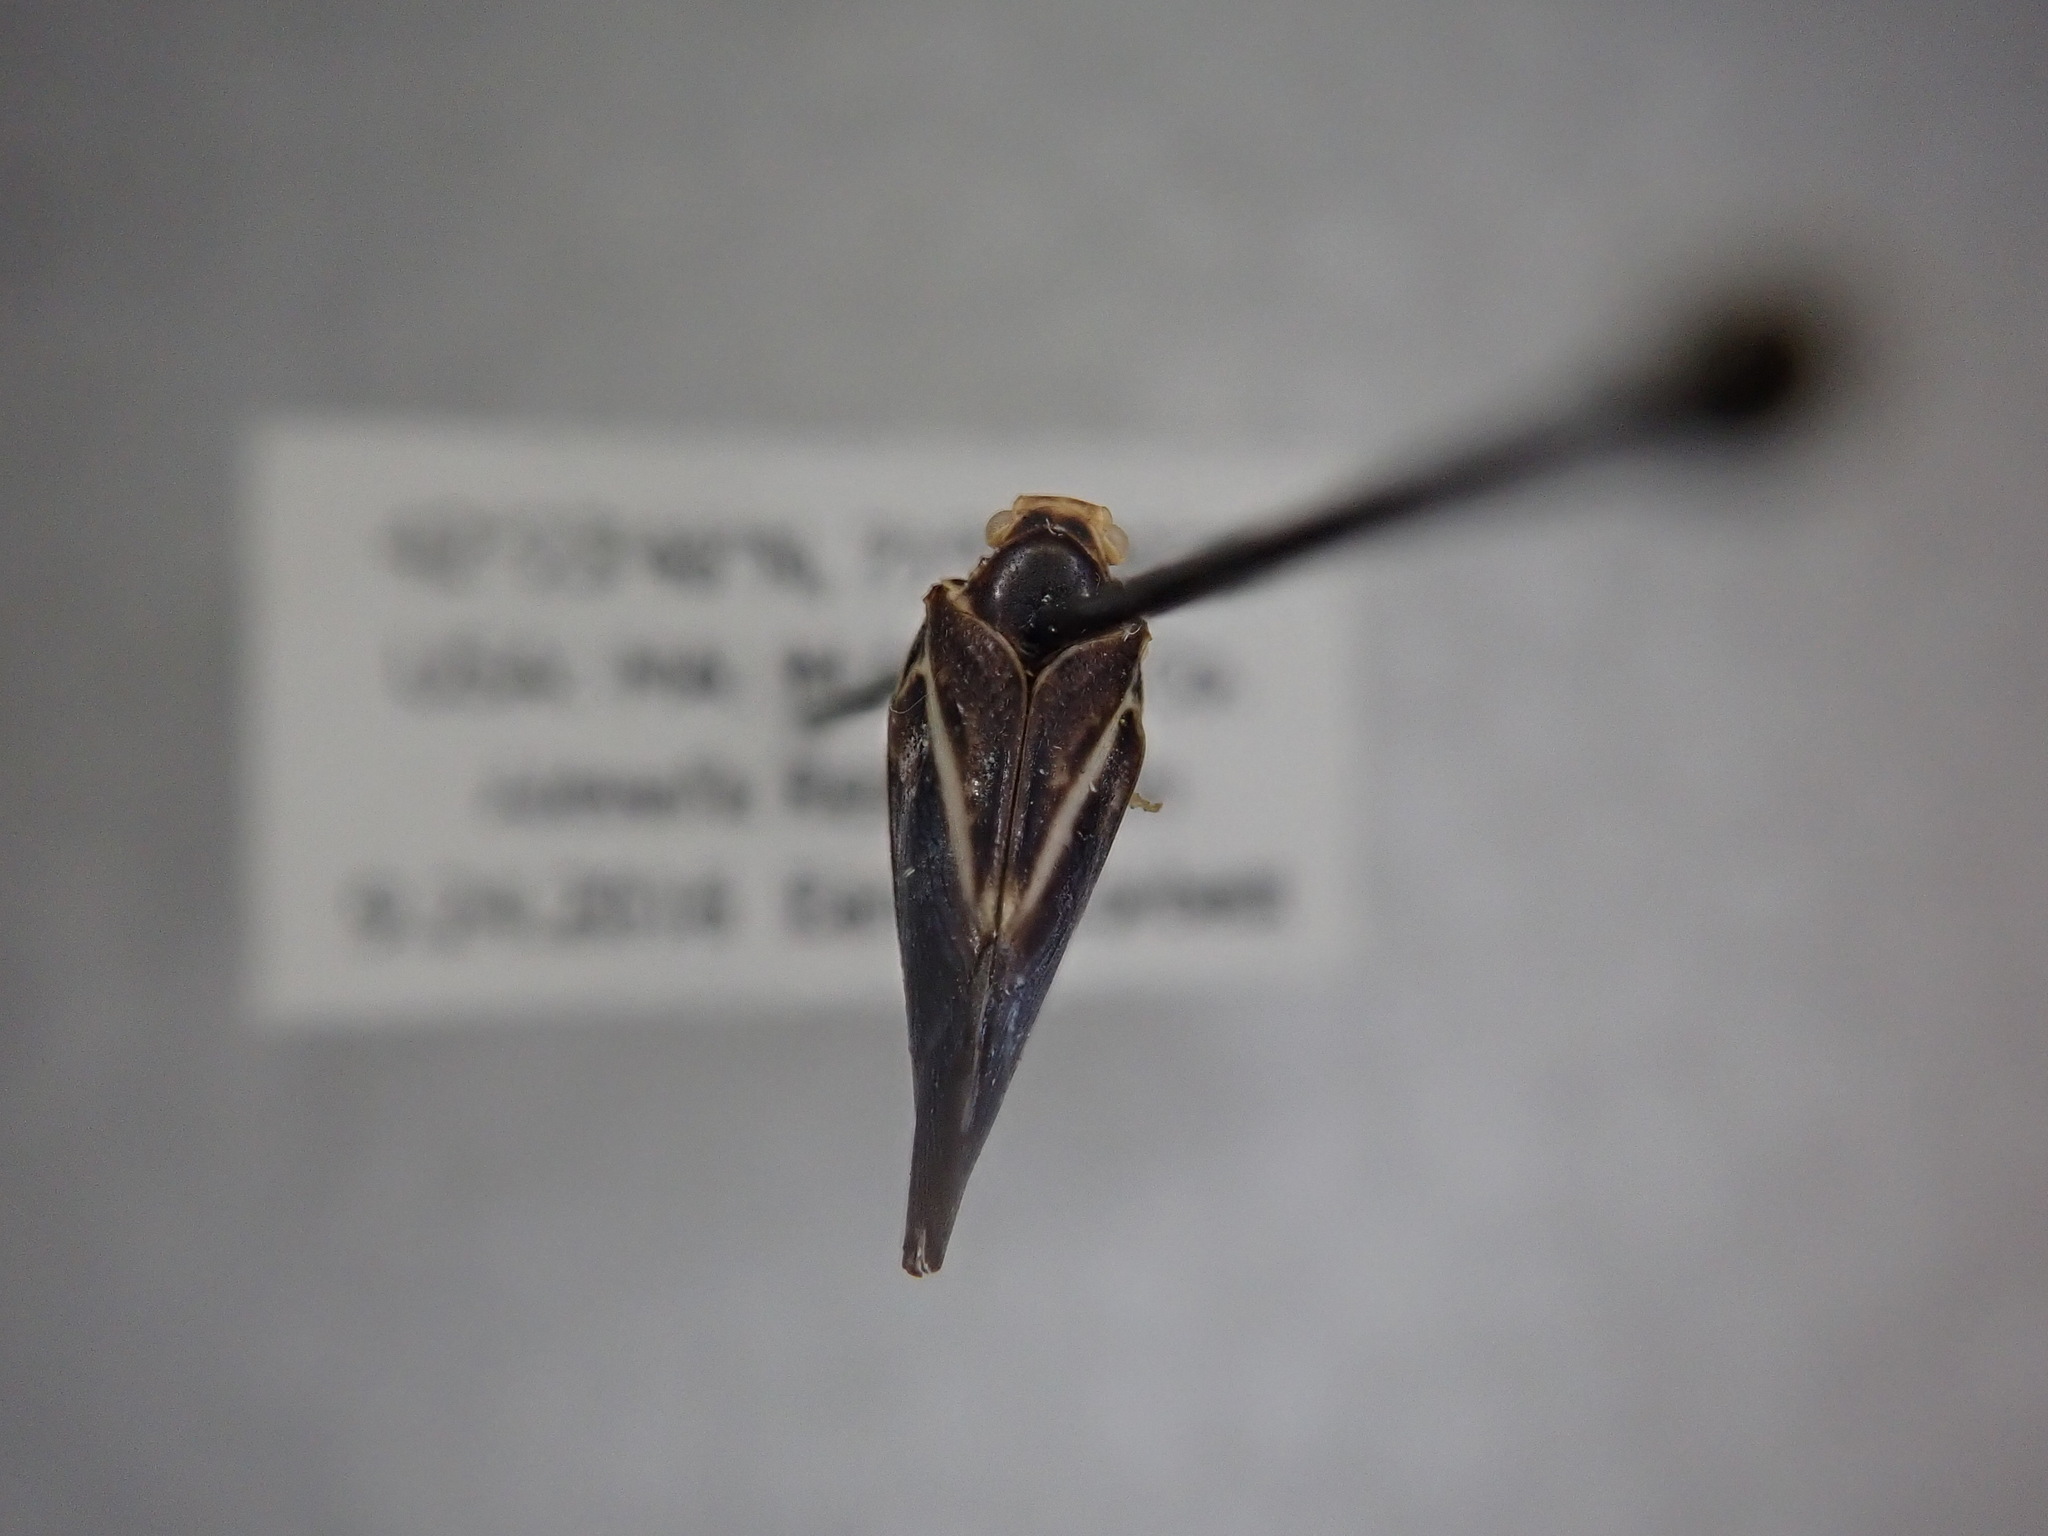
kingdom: Animalia
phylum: Arthropoda
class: Insecta
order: Hemiptera
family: Flatidae
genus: Metcalfa
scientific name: Metcalfa pruinosa
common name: Citrus flatid planthopper
